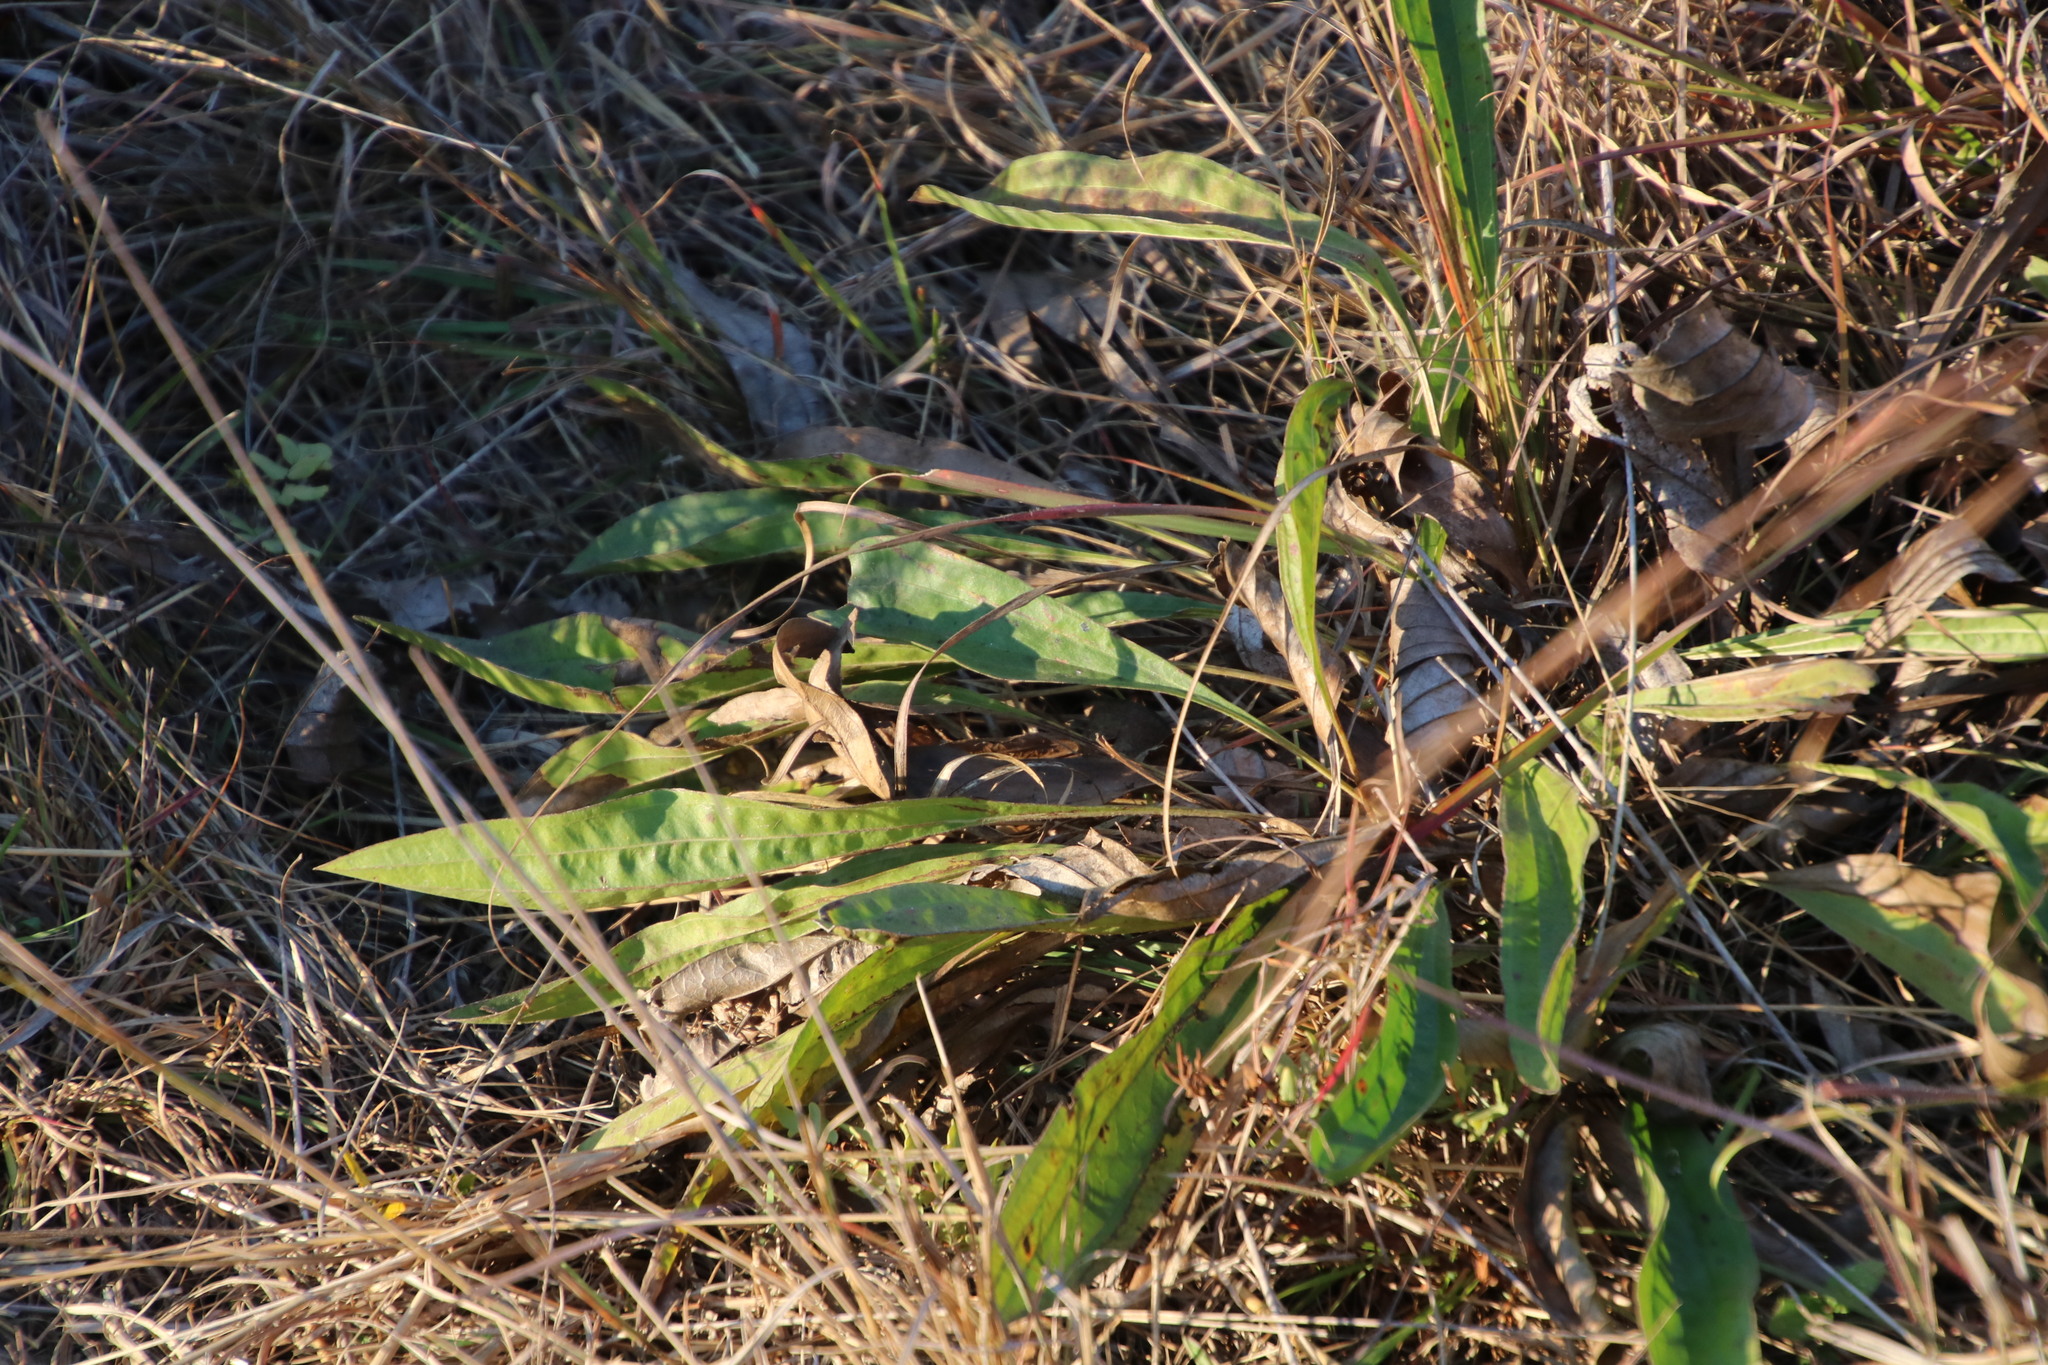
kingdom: Plantae
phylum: Tracheophyta
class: Magnoliopsida
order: Asterales
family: Asteraceae
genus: Helichrysum
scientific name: Helichrysum nudifolium
